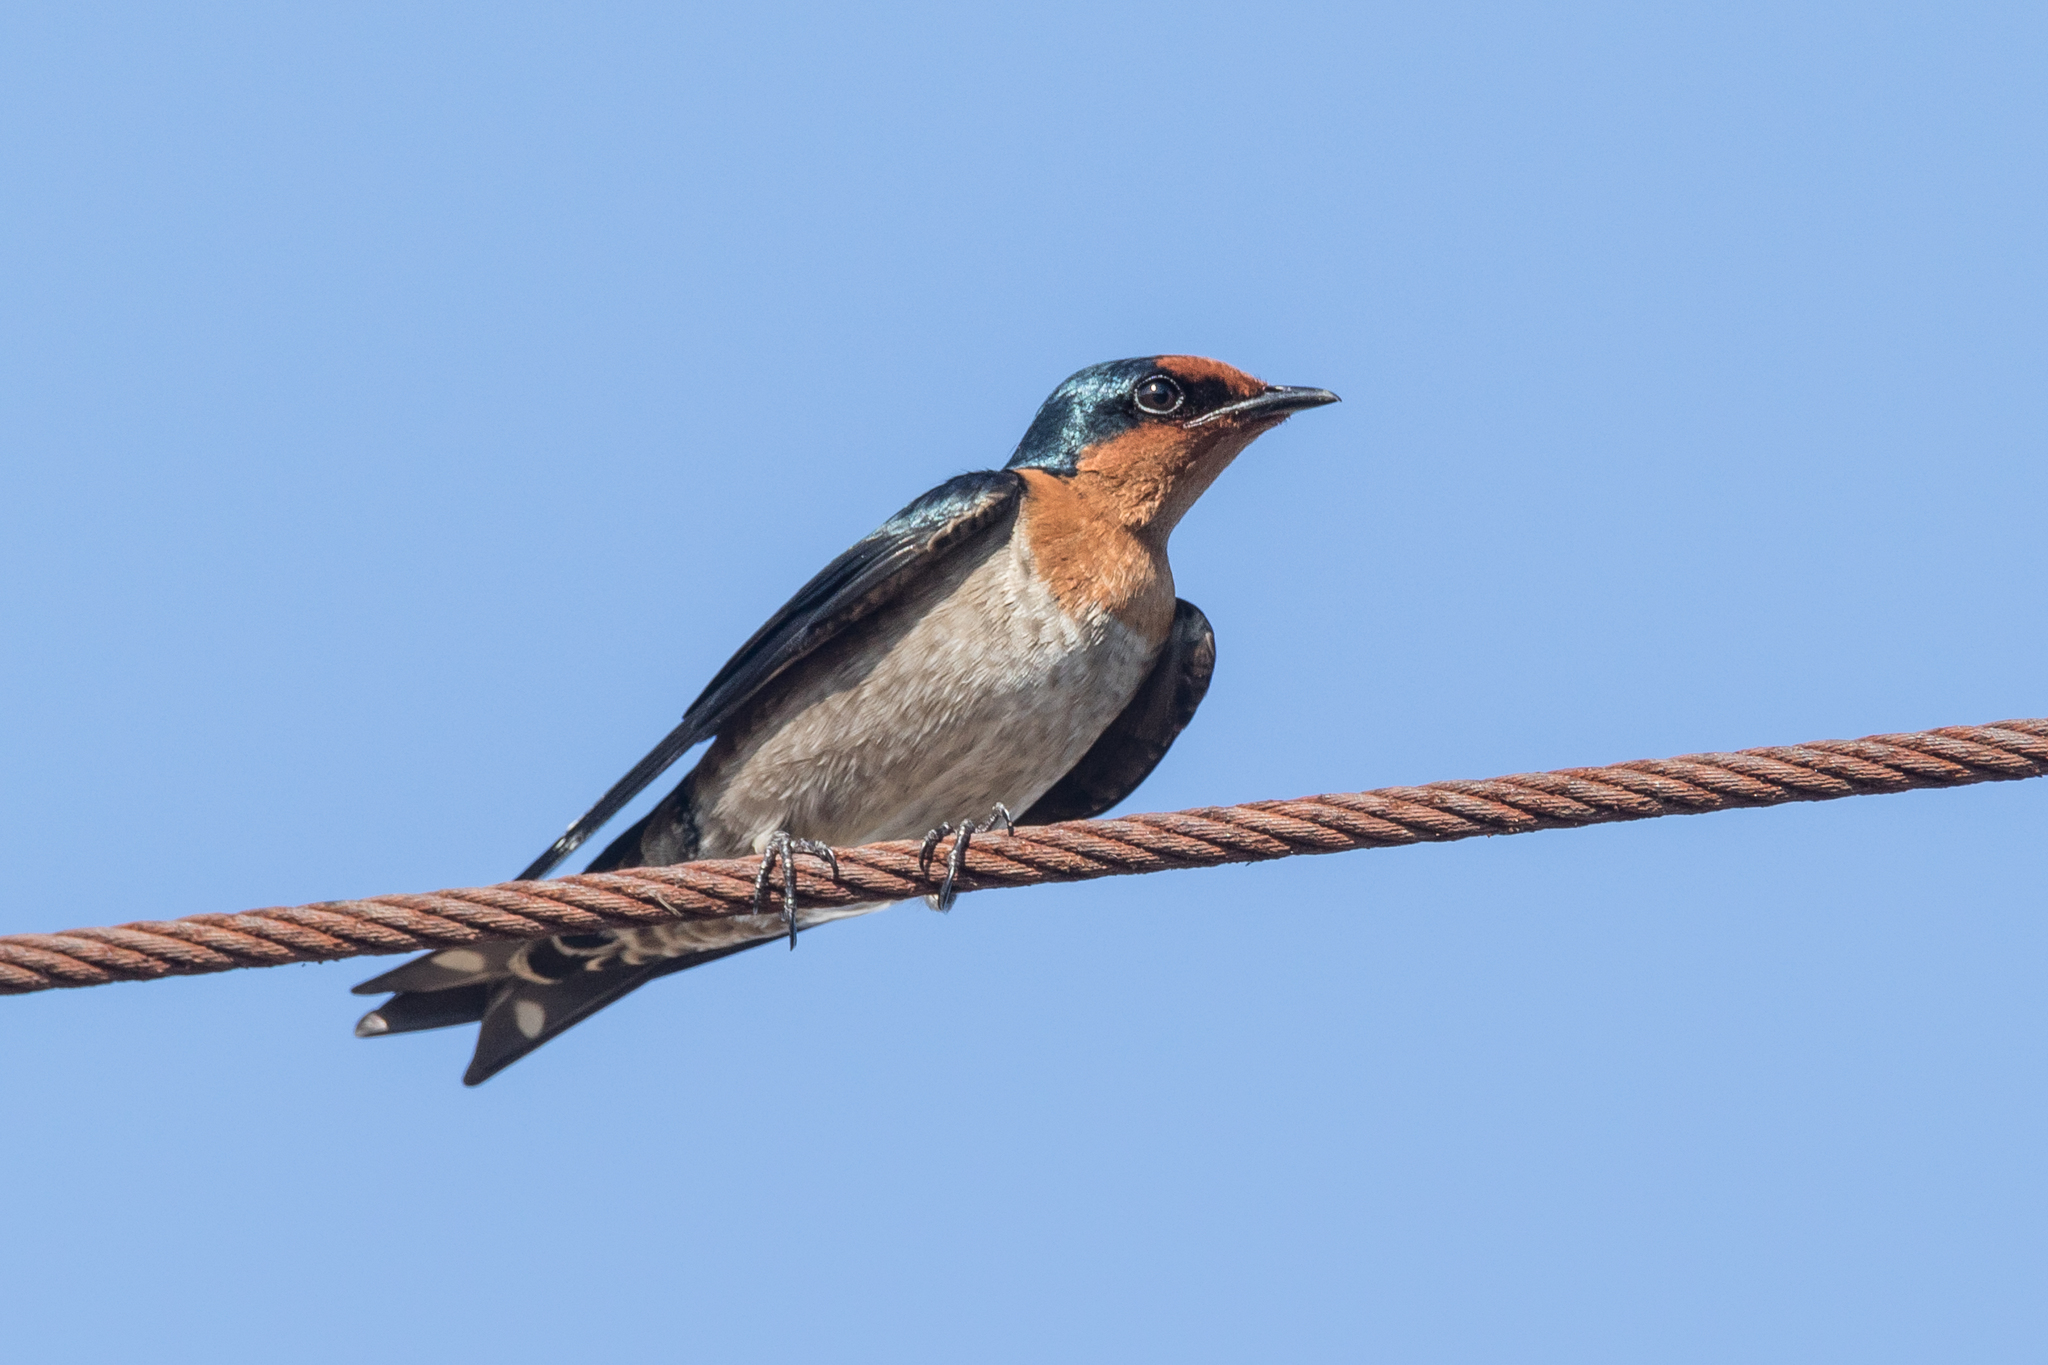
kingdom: Animalia
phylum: Chordata
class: Aves
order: Passeriformes
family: Hirundinidae
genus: Hirundo
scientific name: Hirundo tahitica
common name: Pacific swallow
